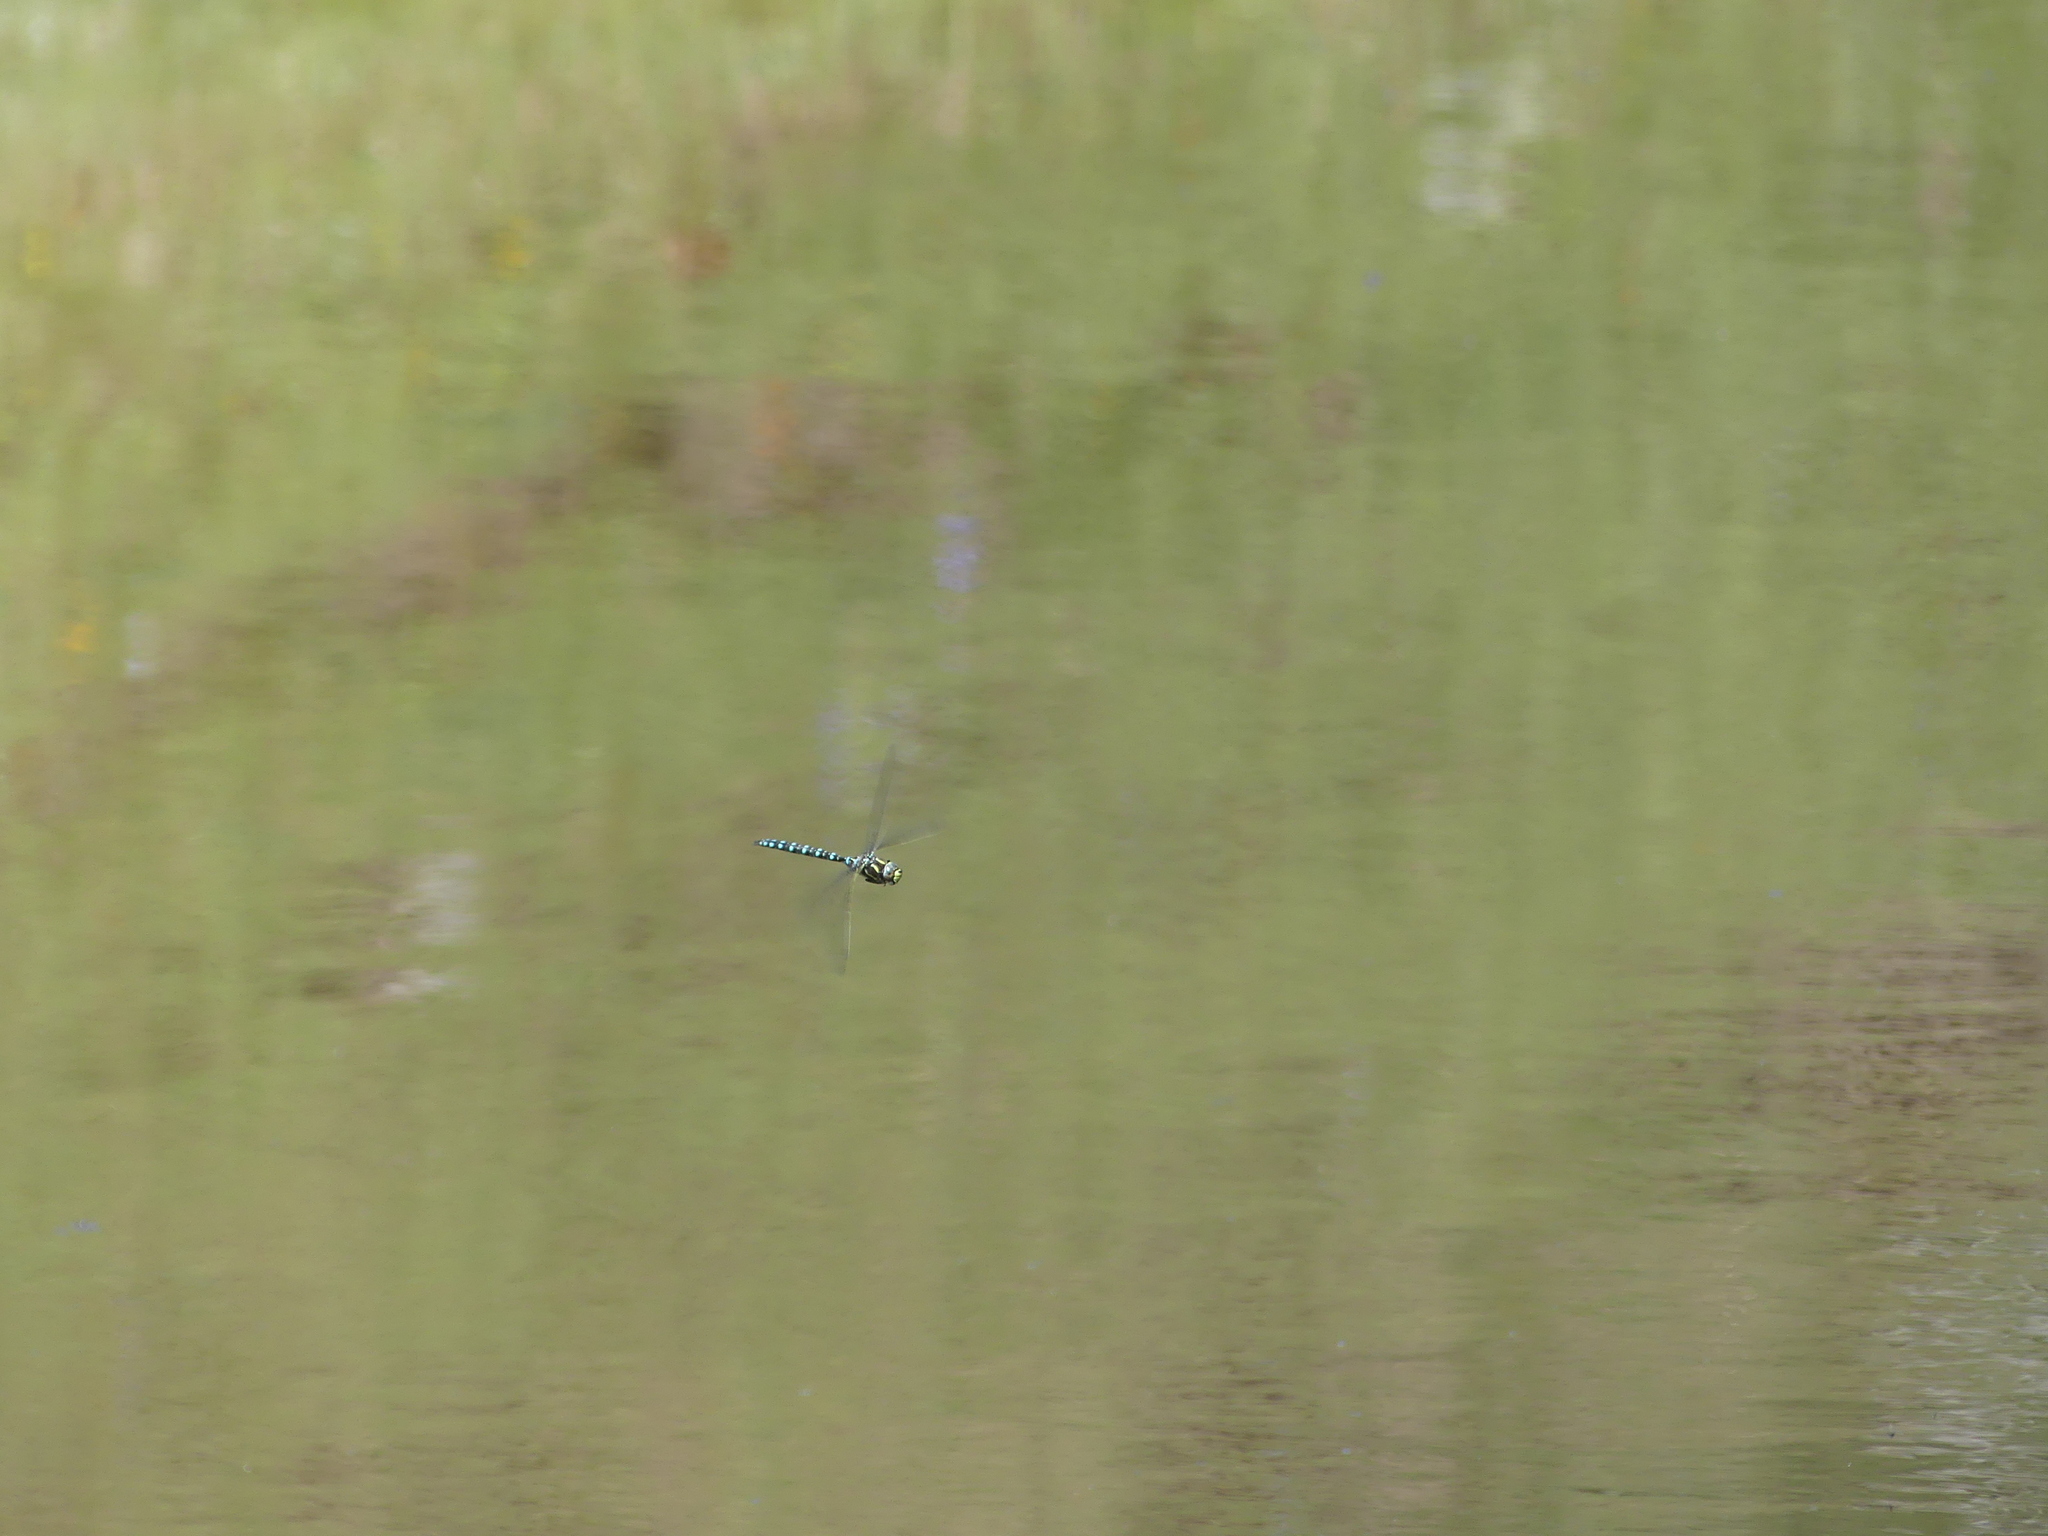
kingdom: Animalia
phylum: Arthropoda
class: Insecta
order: Odonata
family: Aeshnidae
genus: Aeshna
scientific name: Aeshna juncea
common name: Moorland hawker
